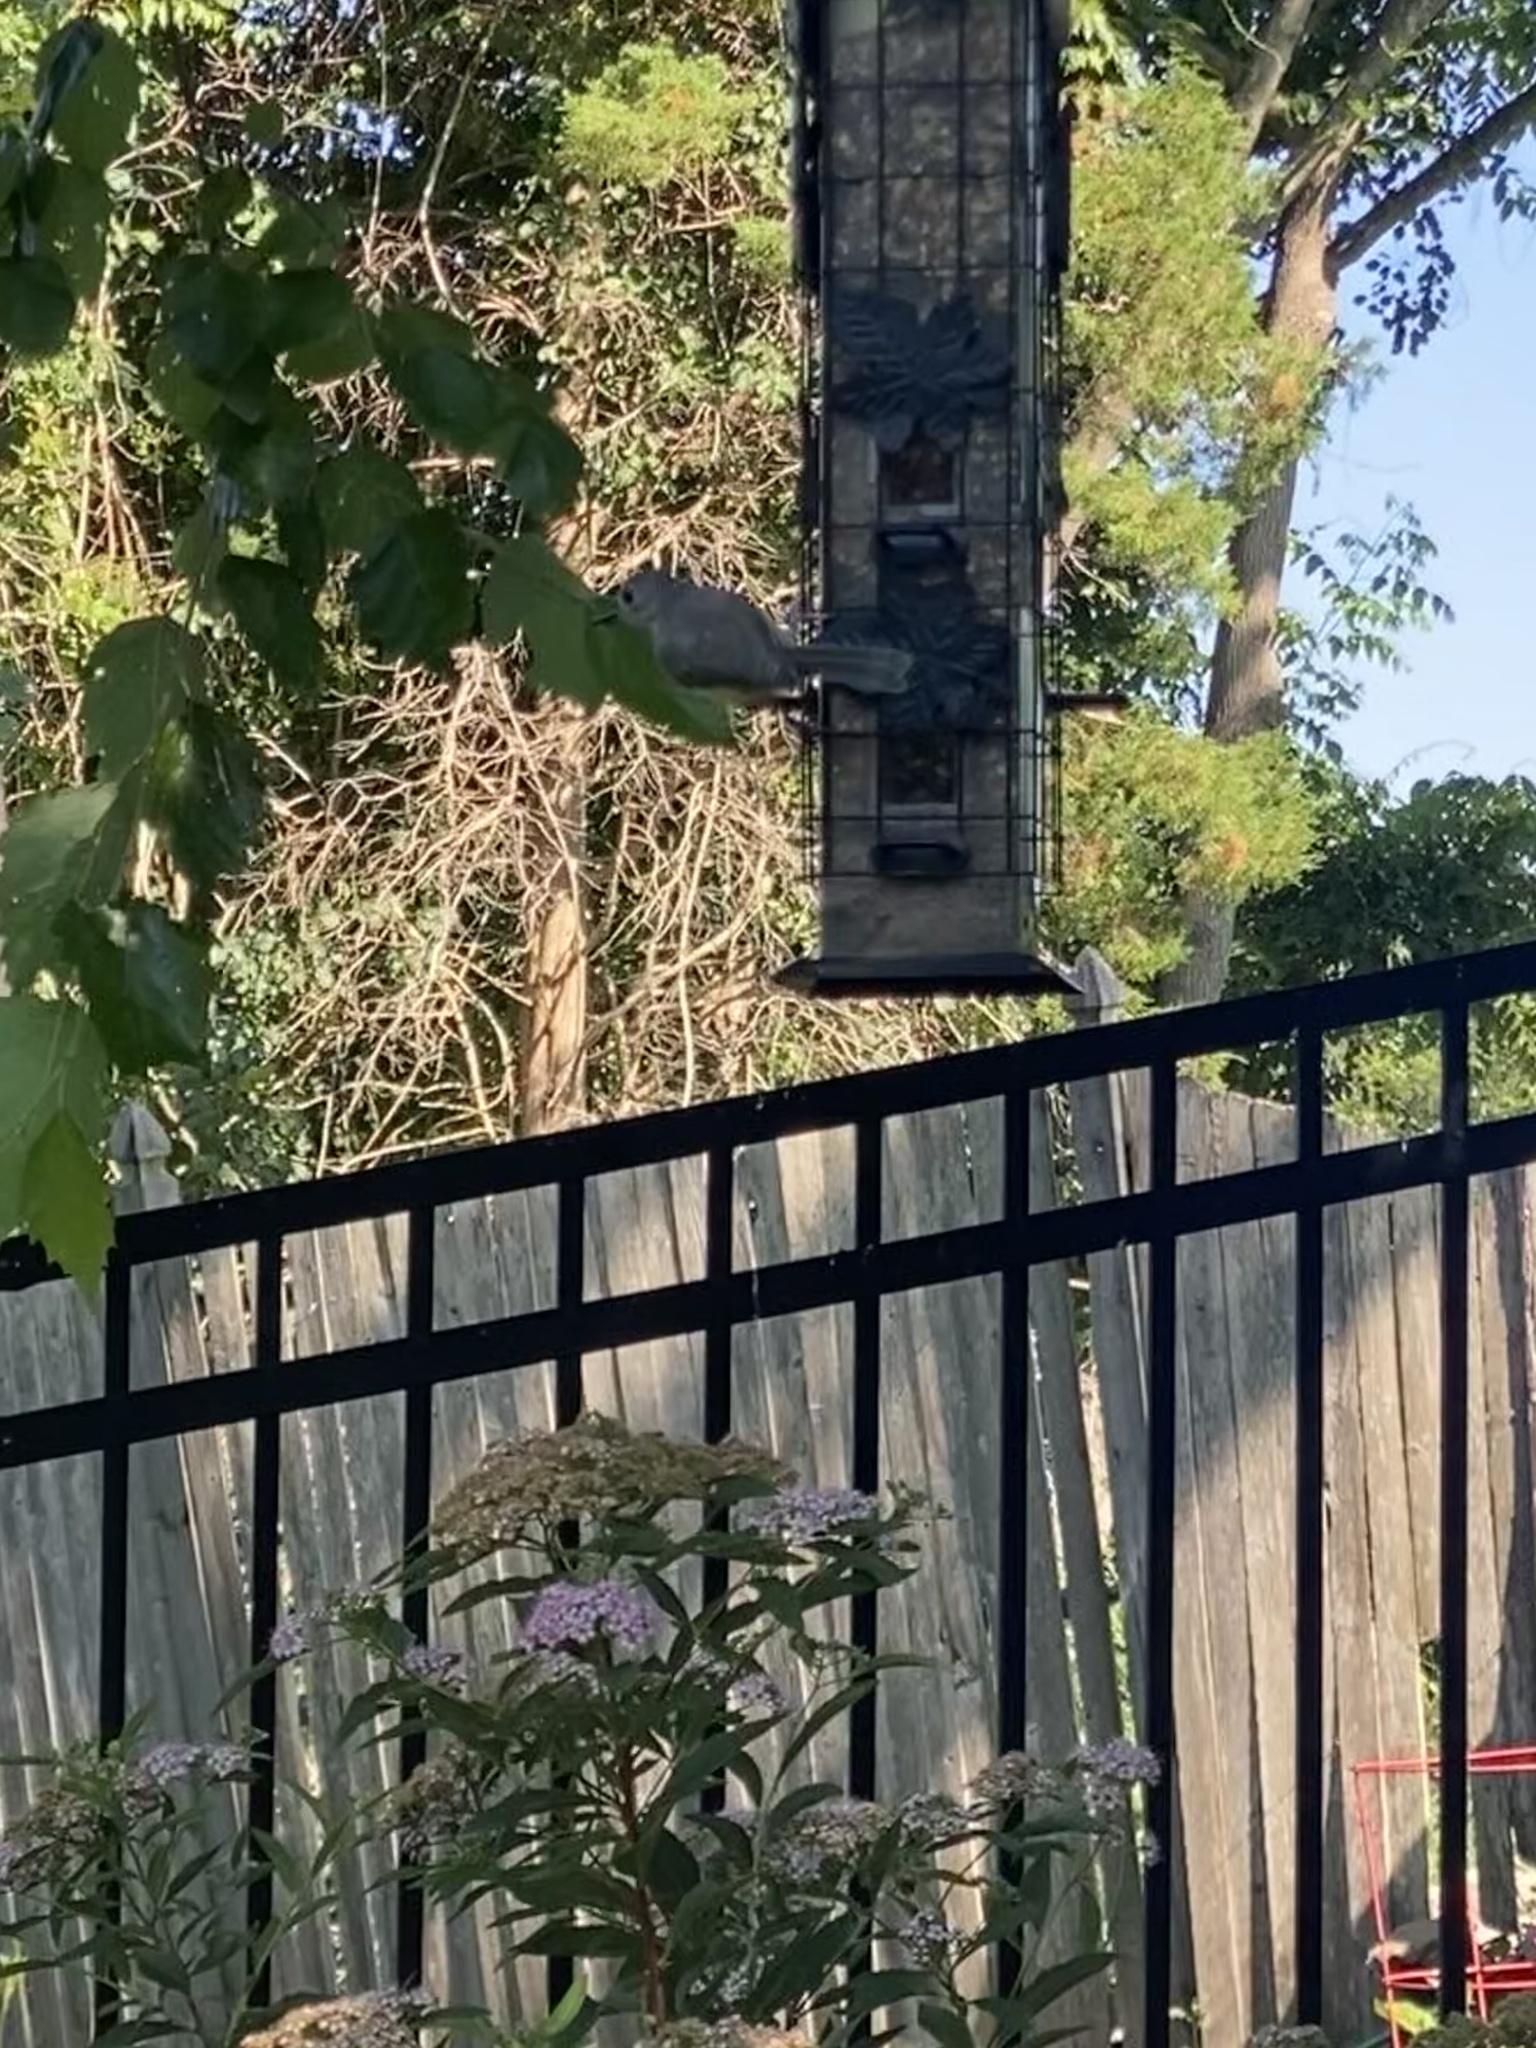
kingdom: Animalia
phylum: Chordata
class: Aves
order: Passeriformes
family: Paridae
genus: Baeolophus
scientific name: Baeolophus bicolor
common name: Tufted titmouse
